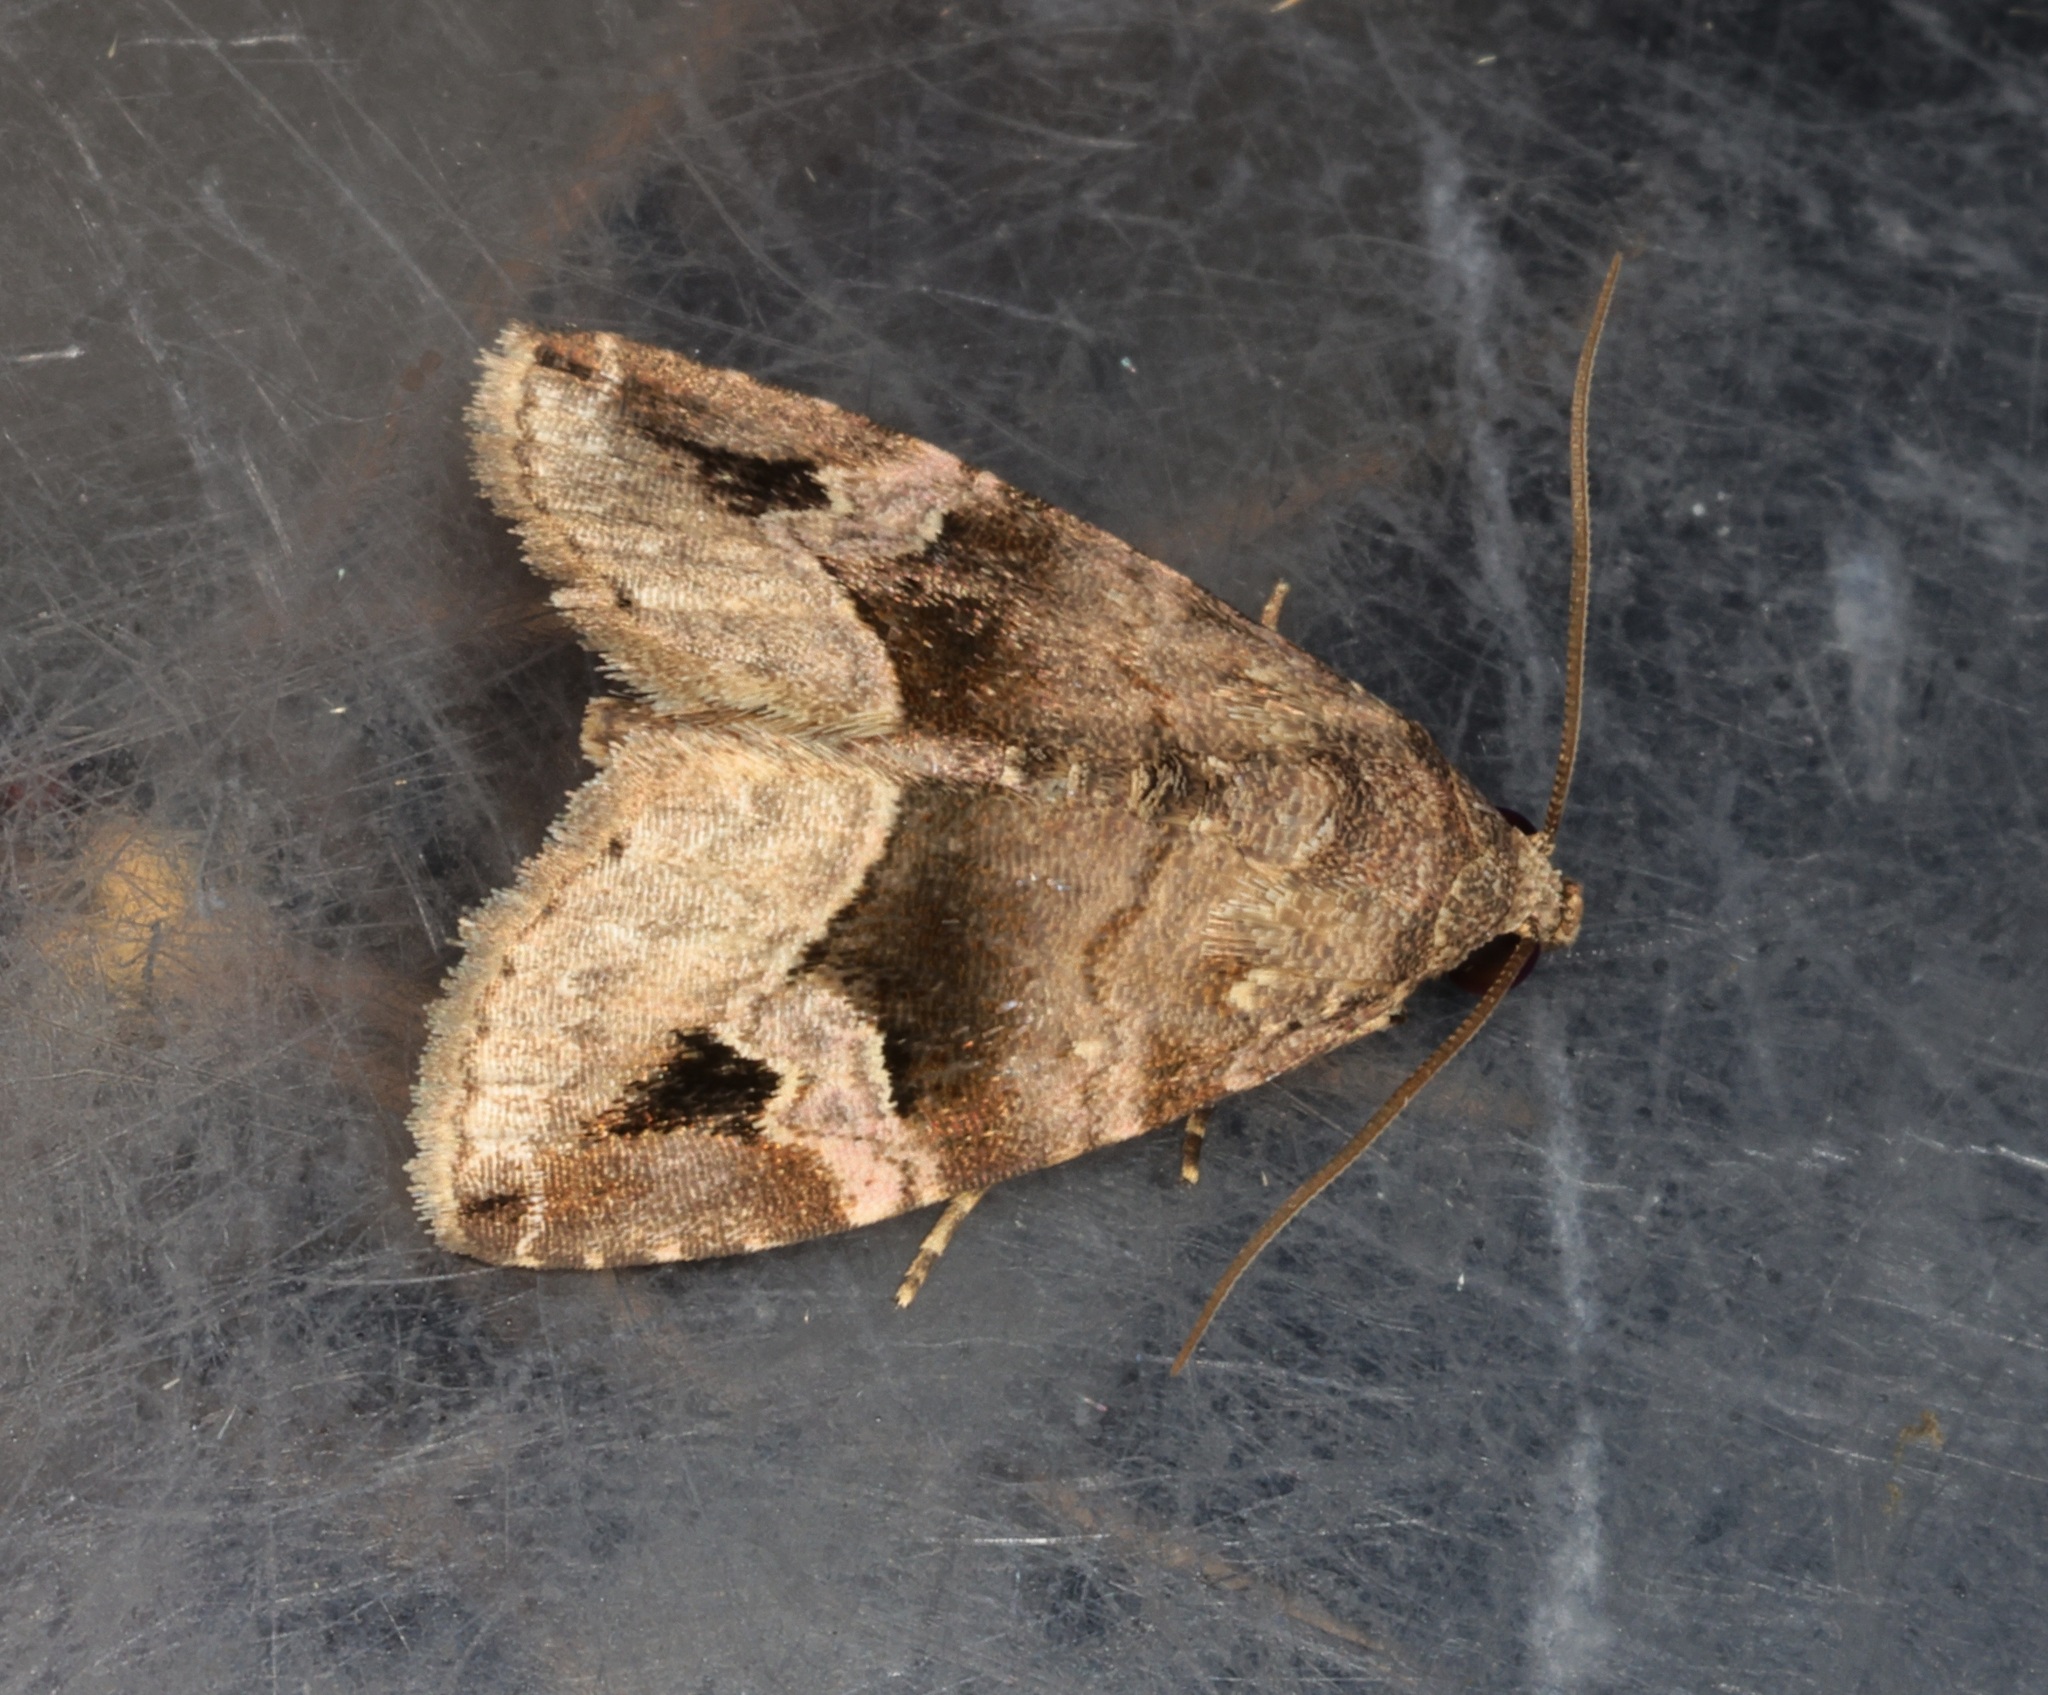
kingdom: Animalia
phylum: Arthropoda
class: Insecta
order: Lepidoptera
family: Noctuidae
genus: Ozarba
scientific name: Ozarba brunnea
